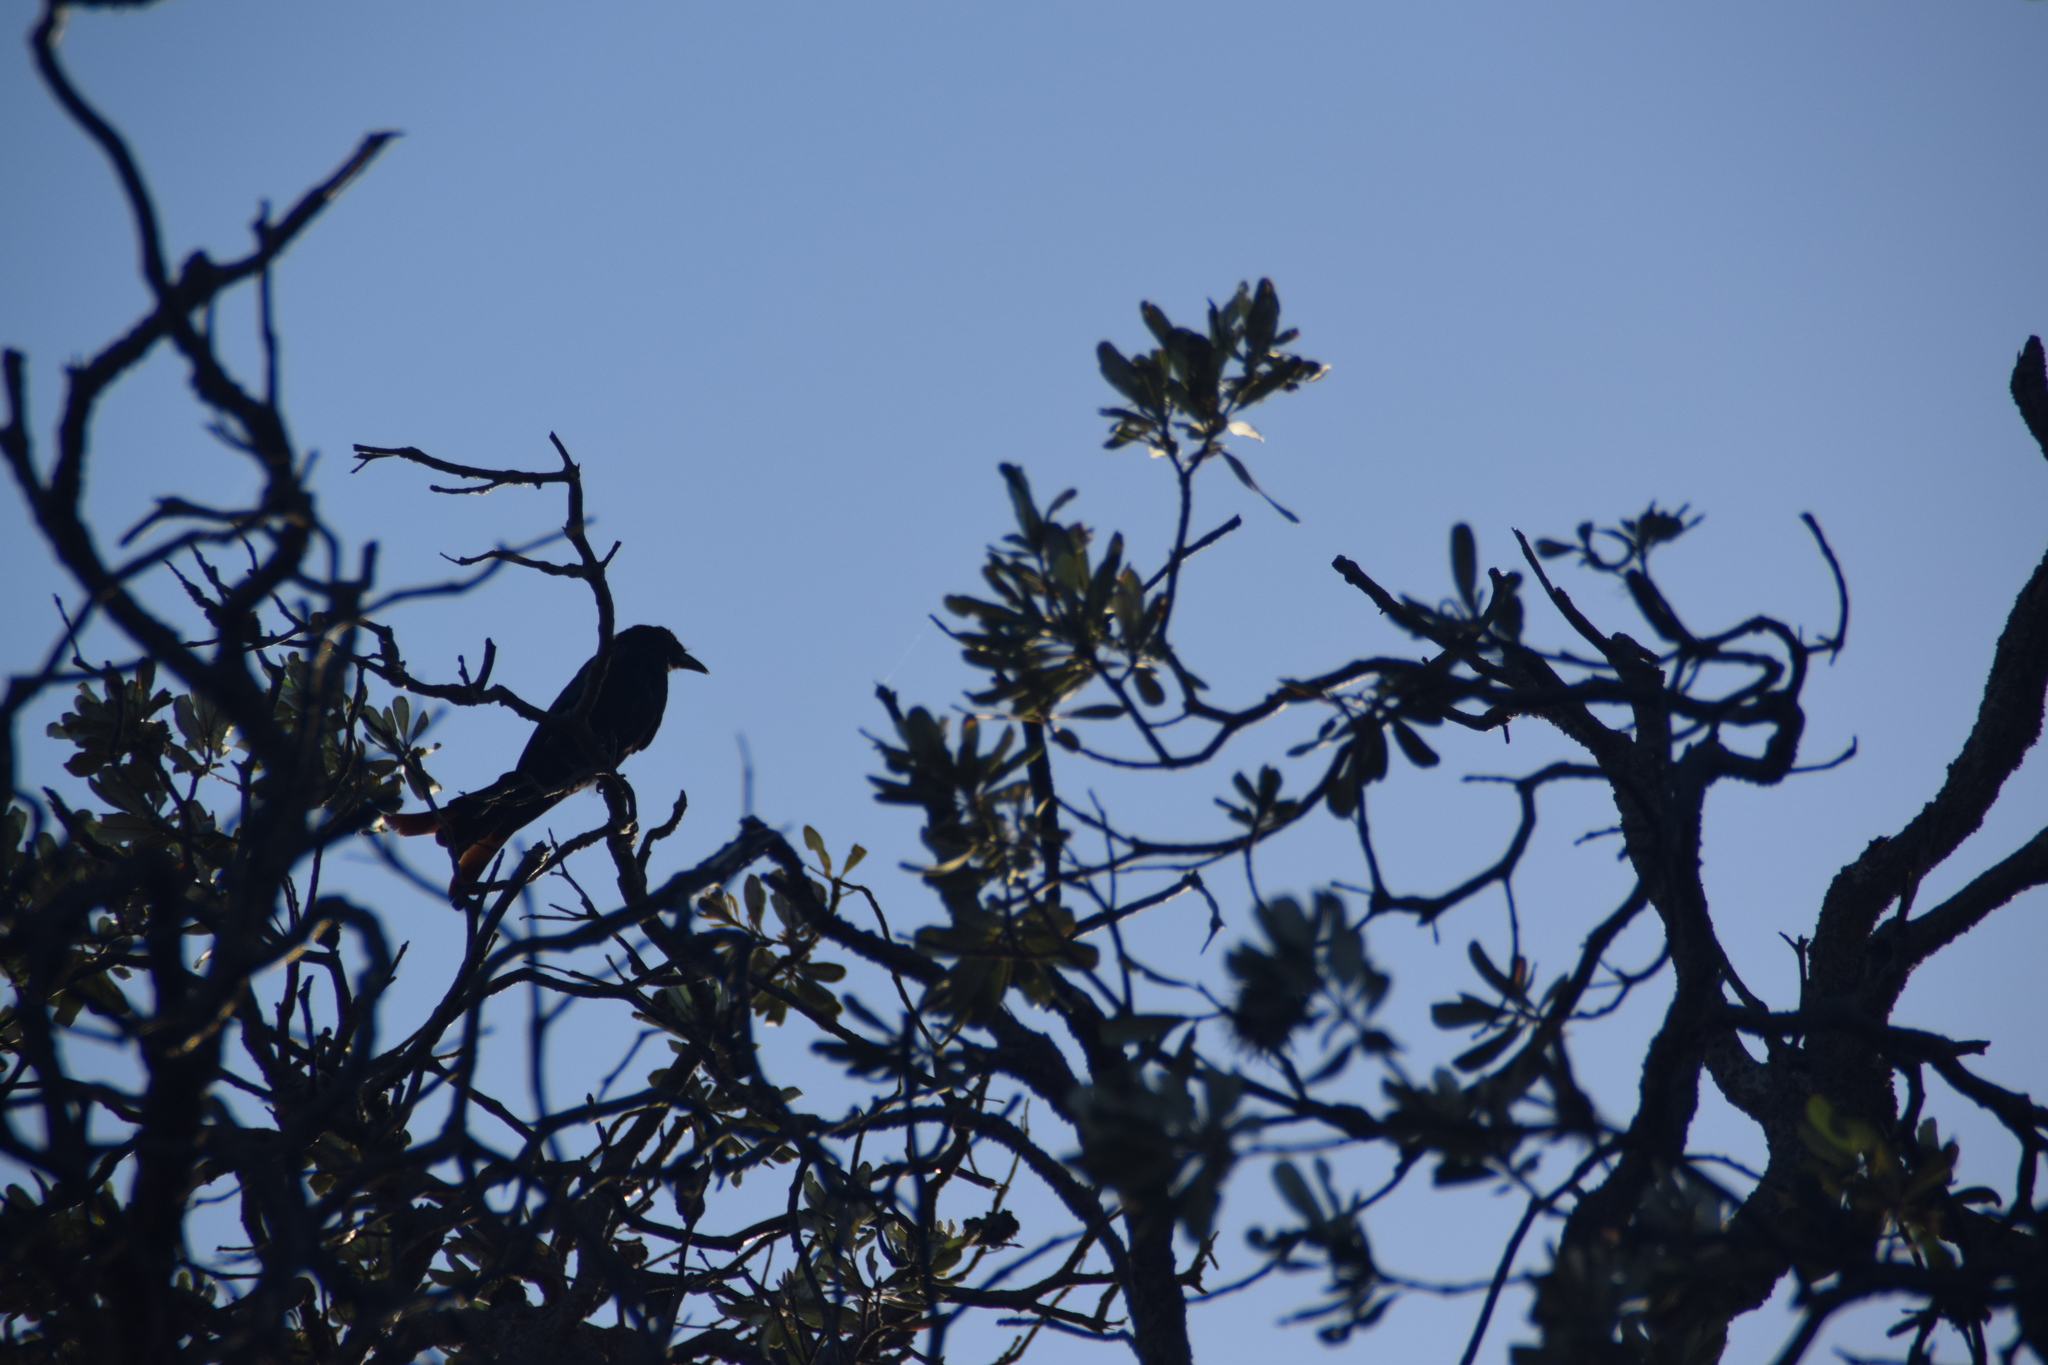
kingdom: Animalia
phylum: Chordata
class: Aves
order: Passeriformes
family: Dicruridae
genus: Dicrurus
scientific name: Dicrurus bracteatus
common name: Spangled drongo
